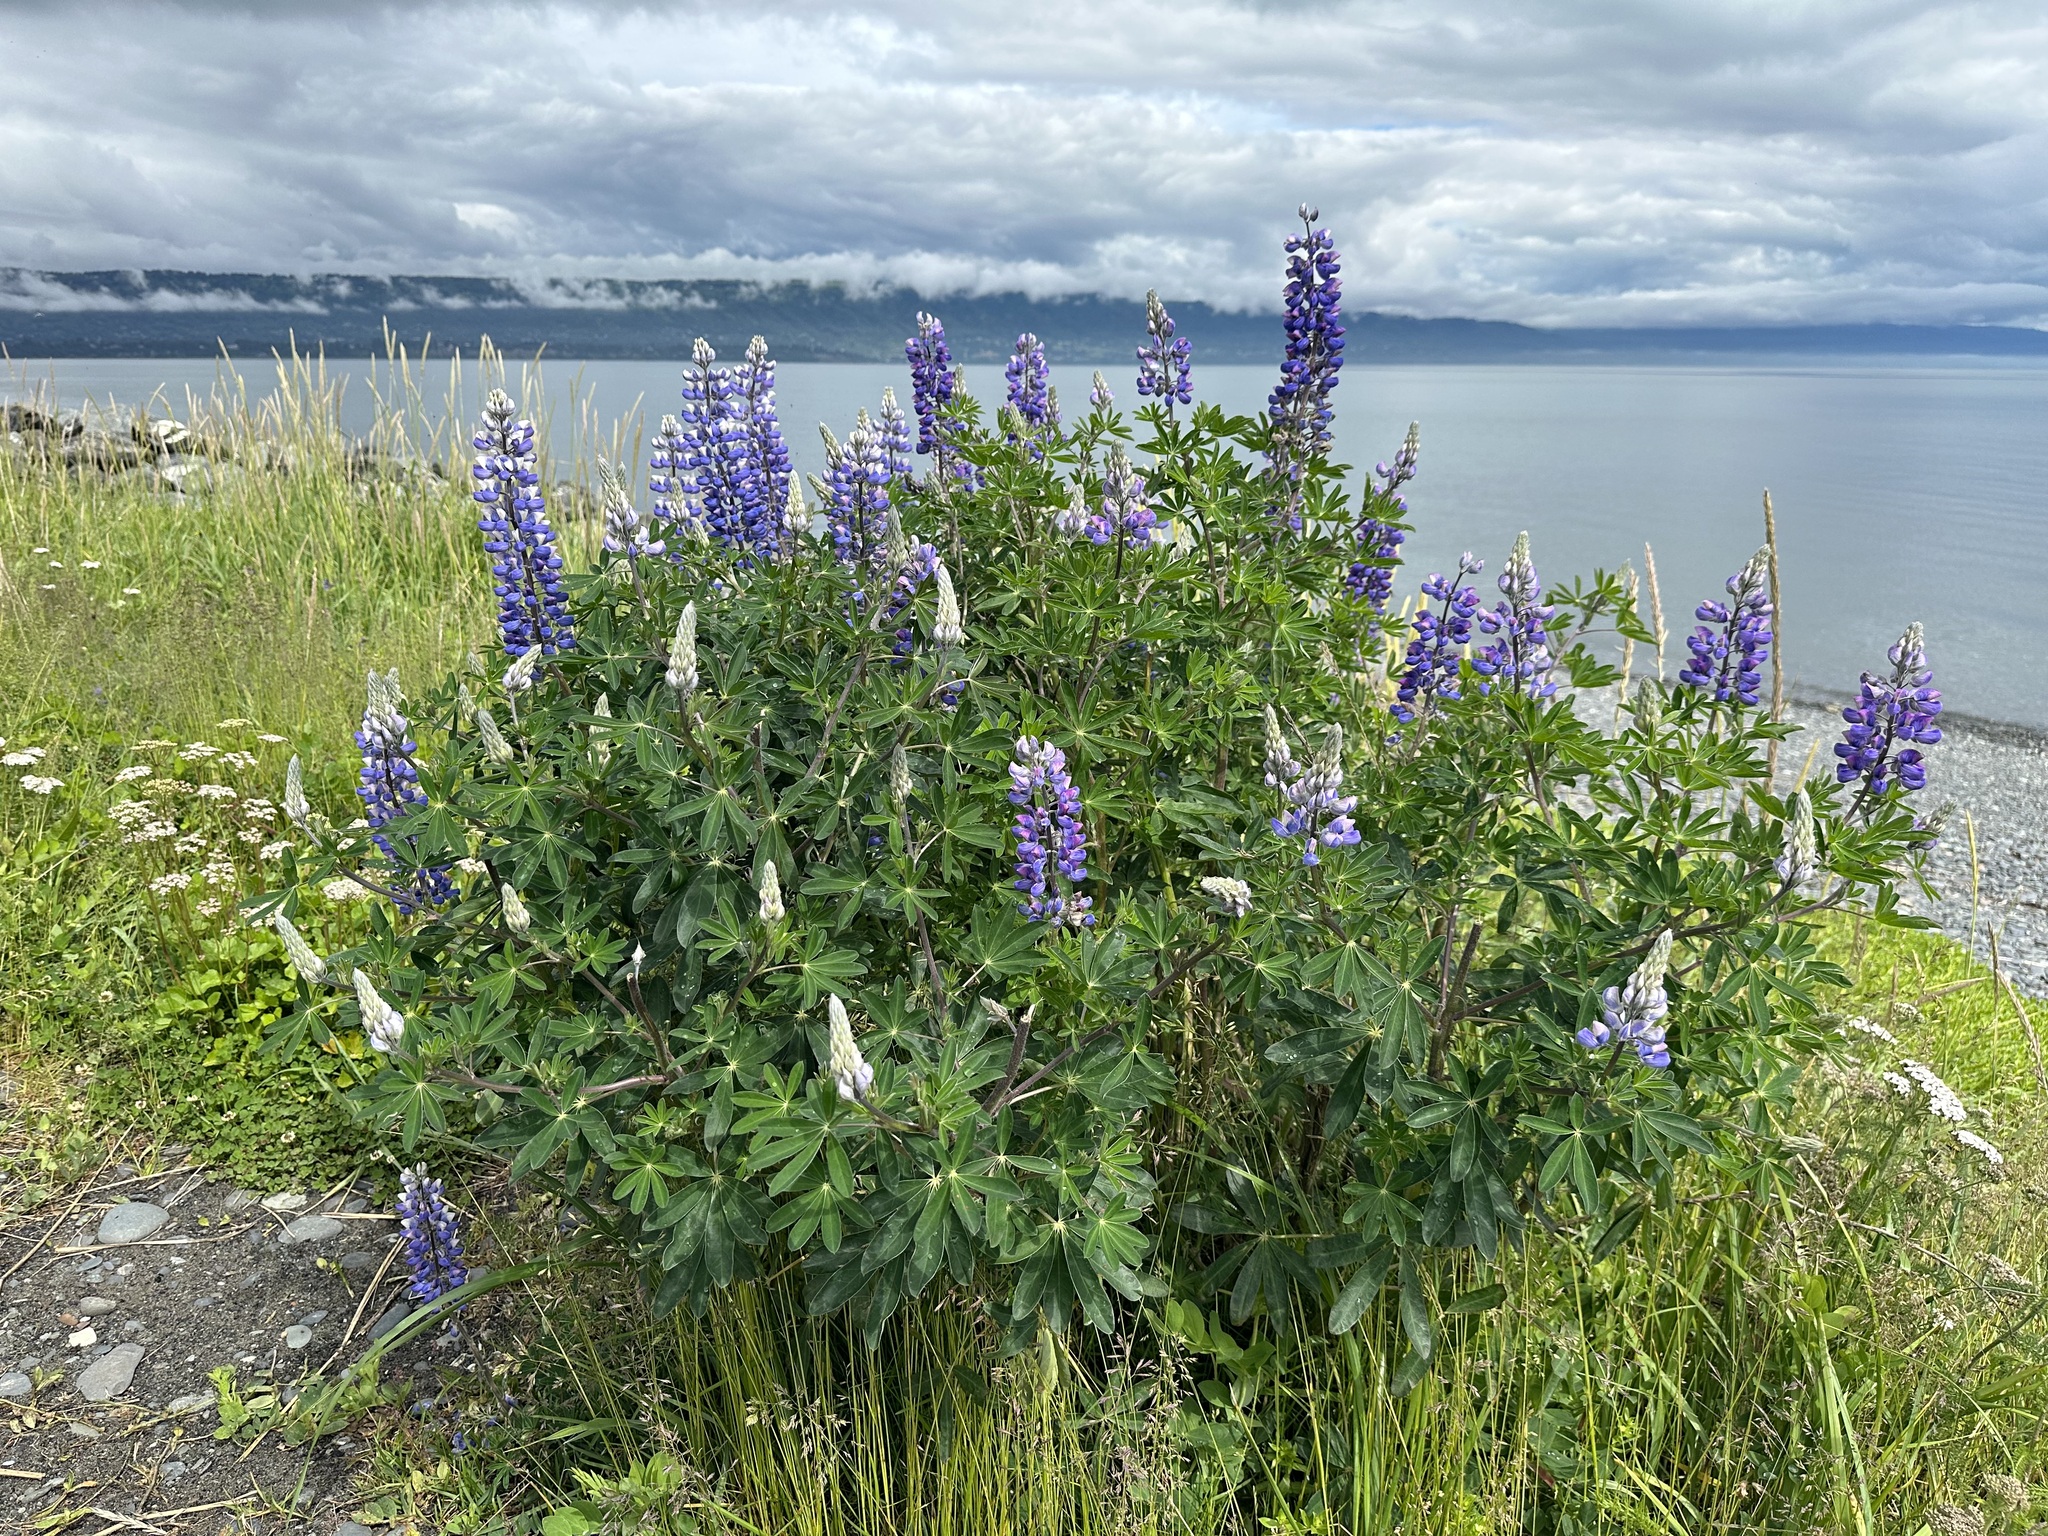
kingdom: Plantae
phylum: Tracheophyta
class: Magnoliopsida
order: Fabales
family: Fabaceae
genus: Lupinus
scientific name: Lupinus nootkatensis
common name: Nootka lupine
